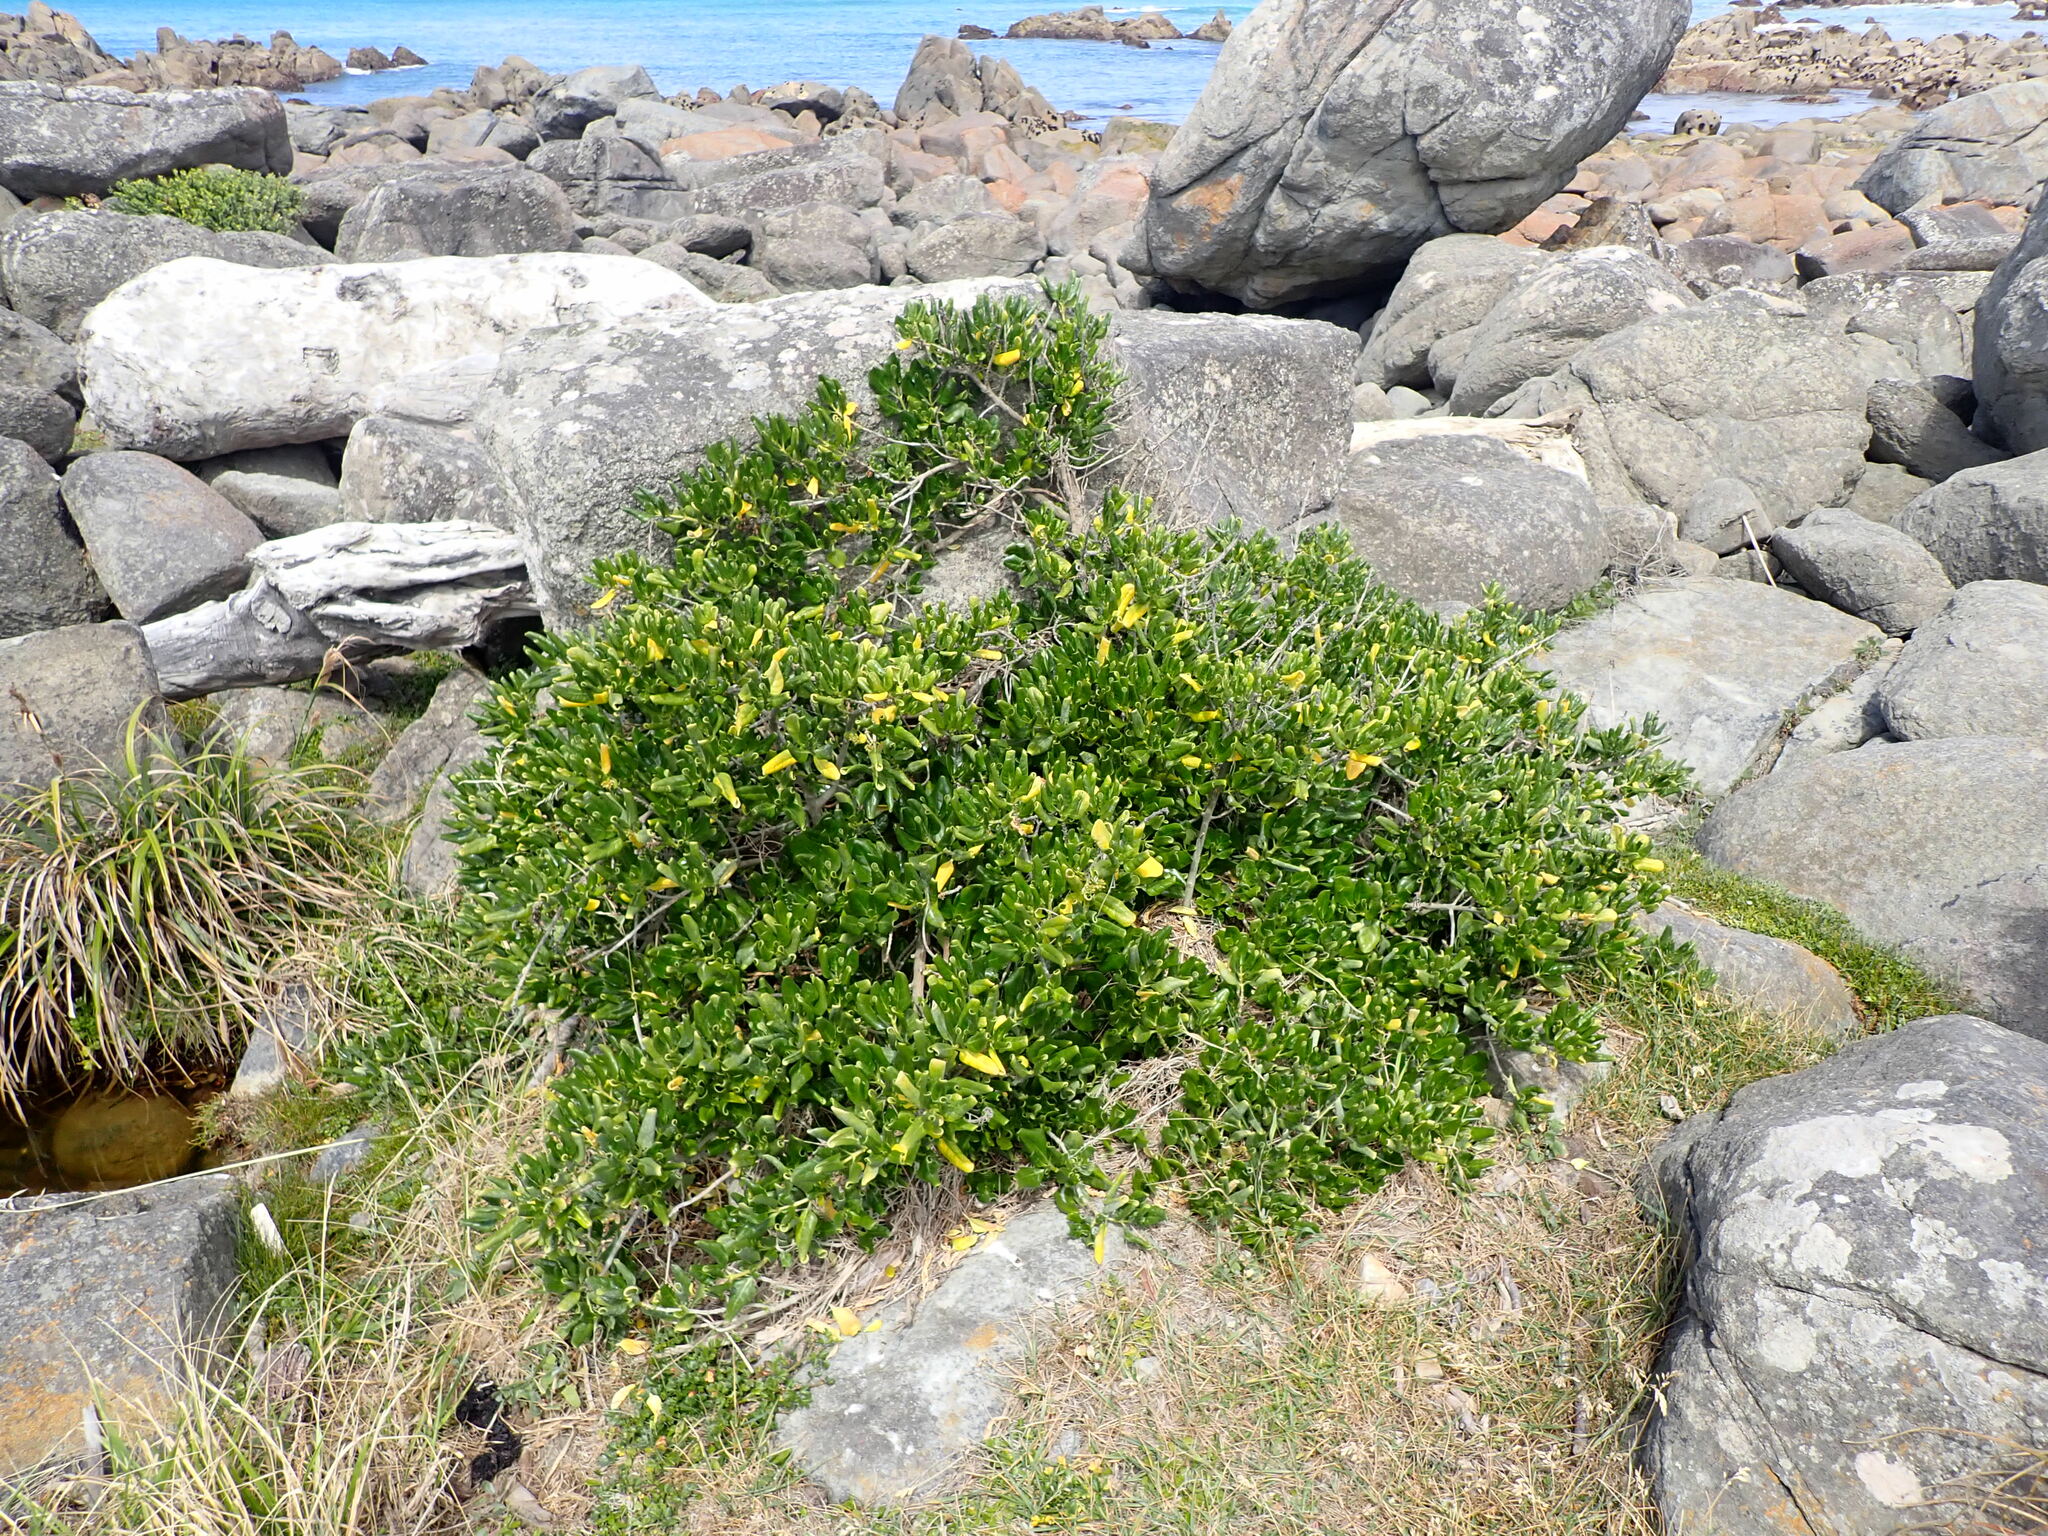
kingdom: Plantae
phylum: Tracheophyta
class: Magnoliopsida
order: Gentianales
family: Rubiaceae
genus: Coprosma
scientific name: Coprosma repens
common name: Tree bedstraw
